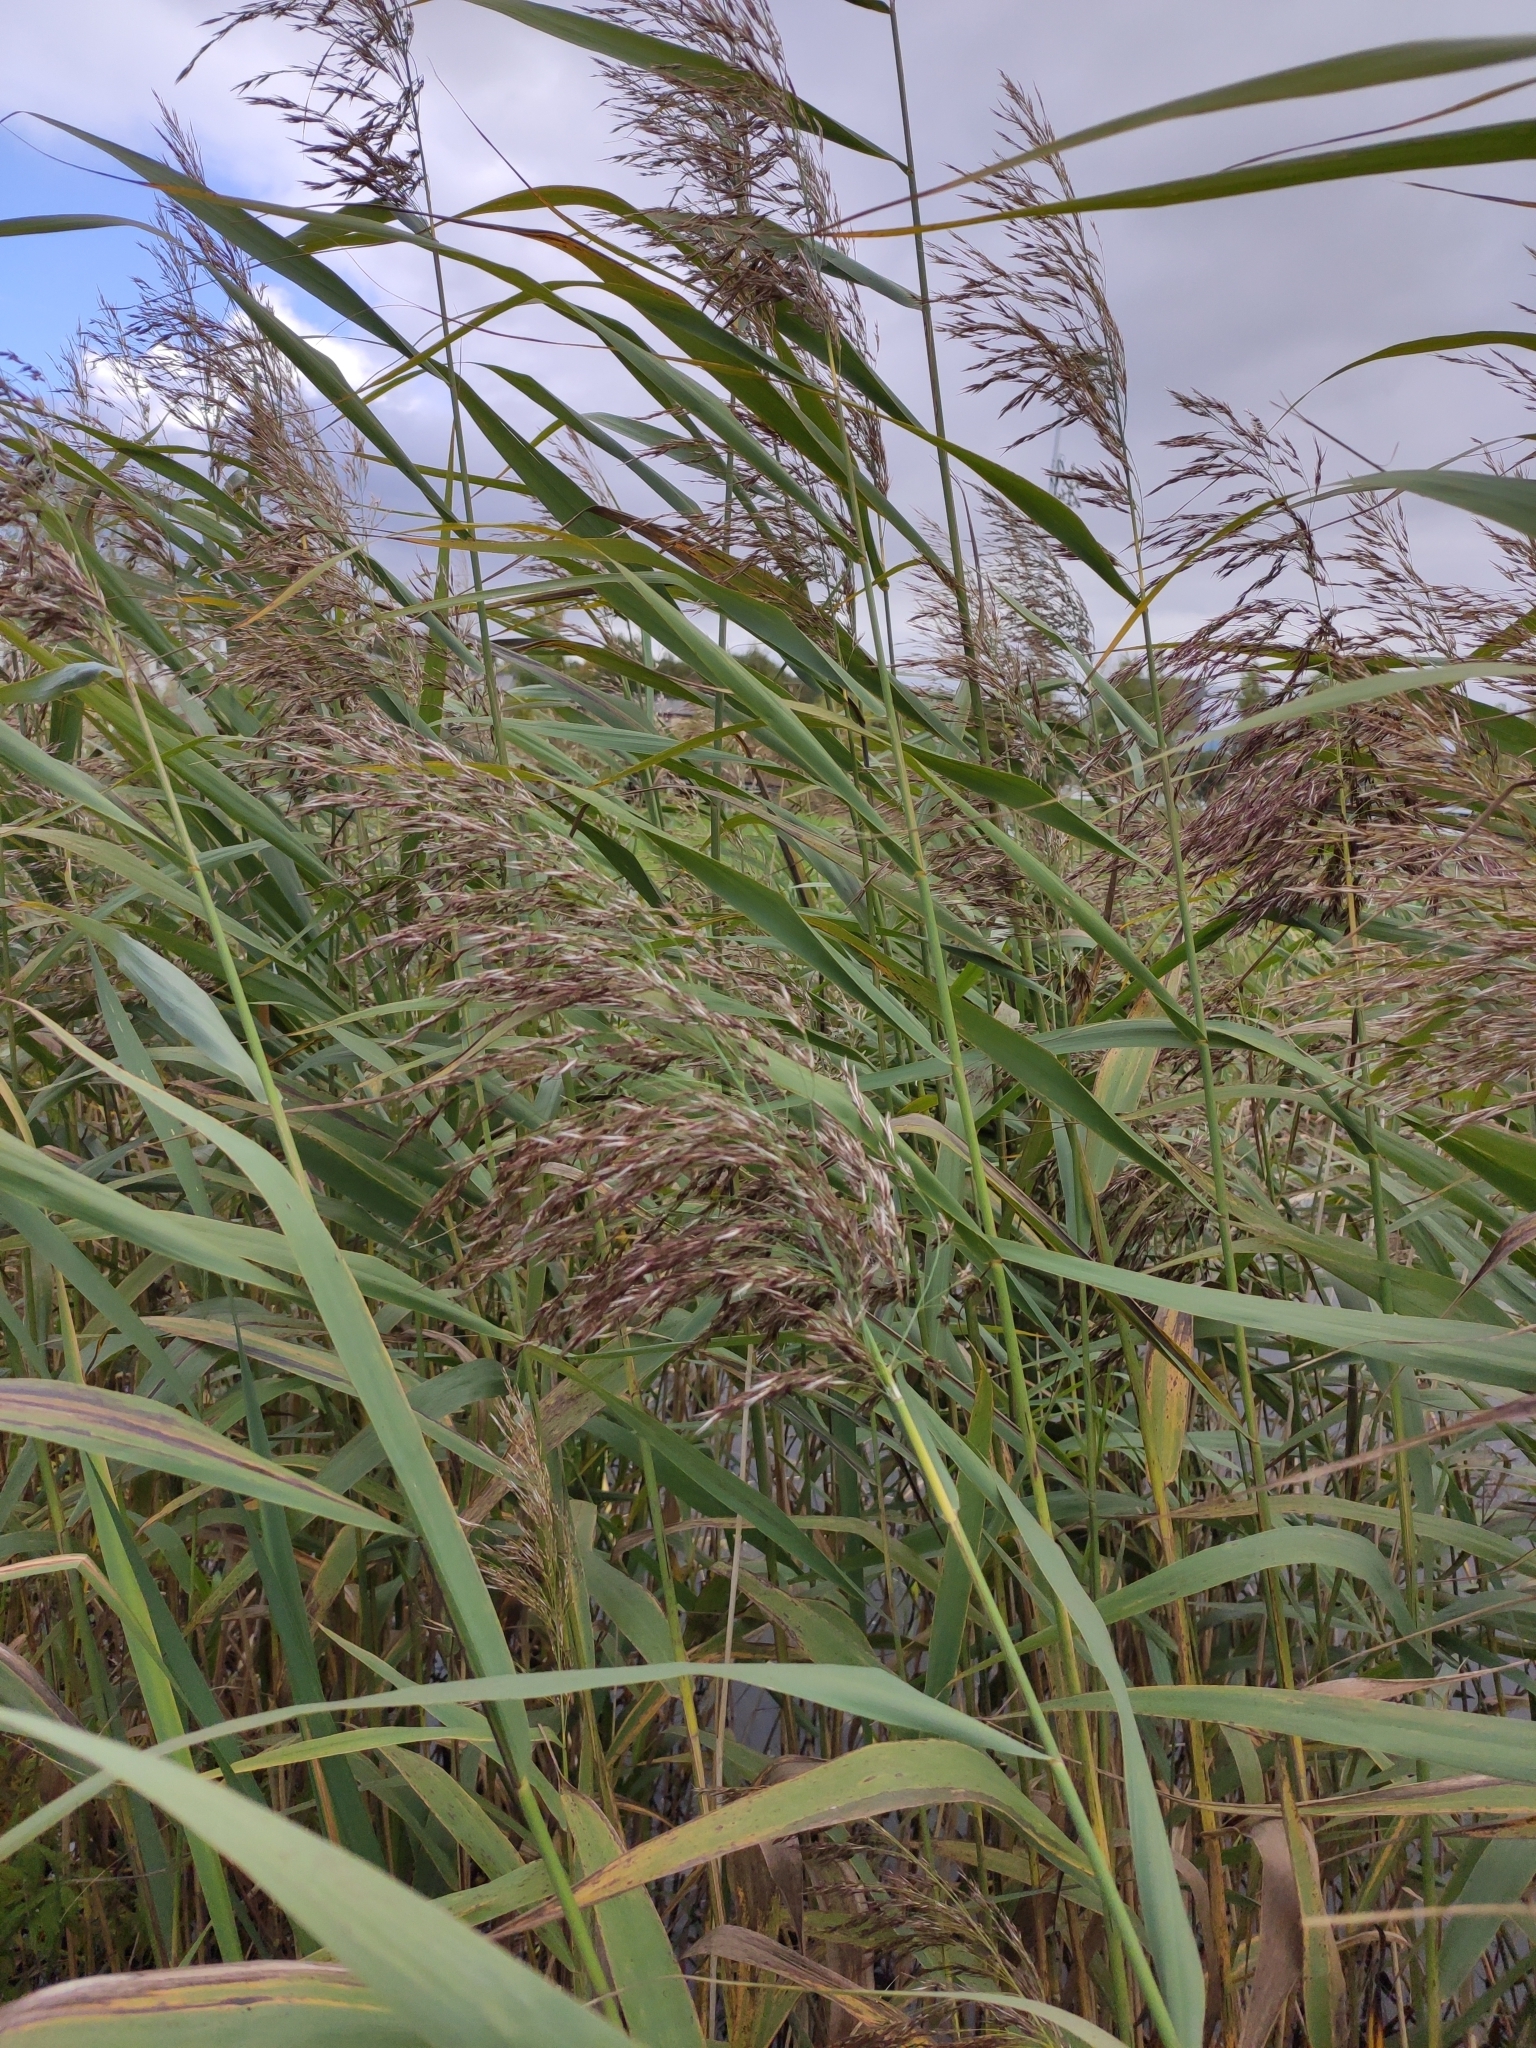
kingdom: Plantae
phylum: Tracheophyta
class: Liliopsida
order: Poales
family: Poaceae
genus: Phragmites
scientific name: Phragmites australis
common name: Common reed
